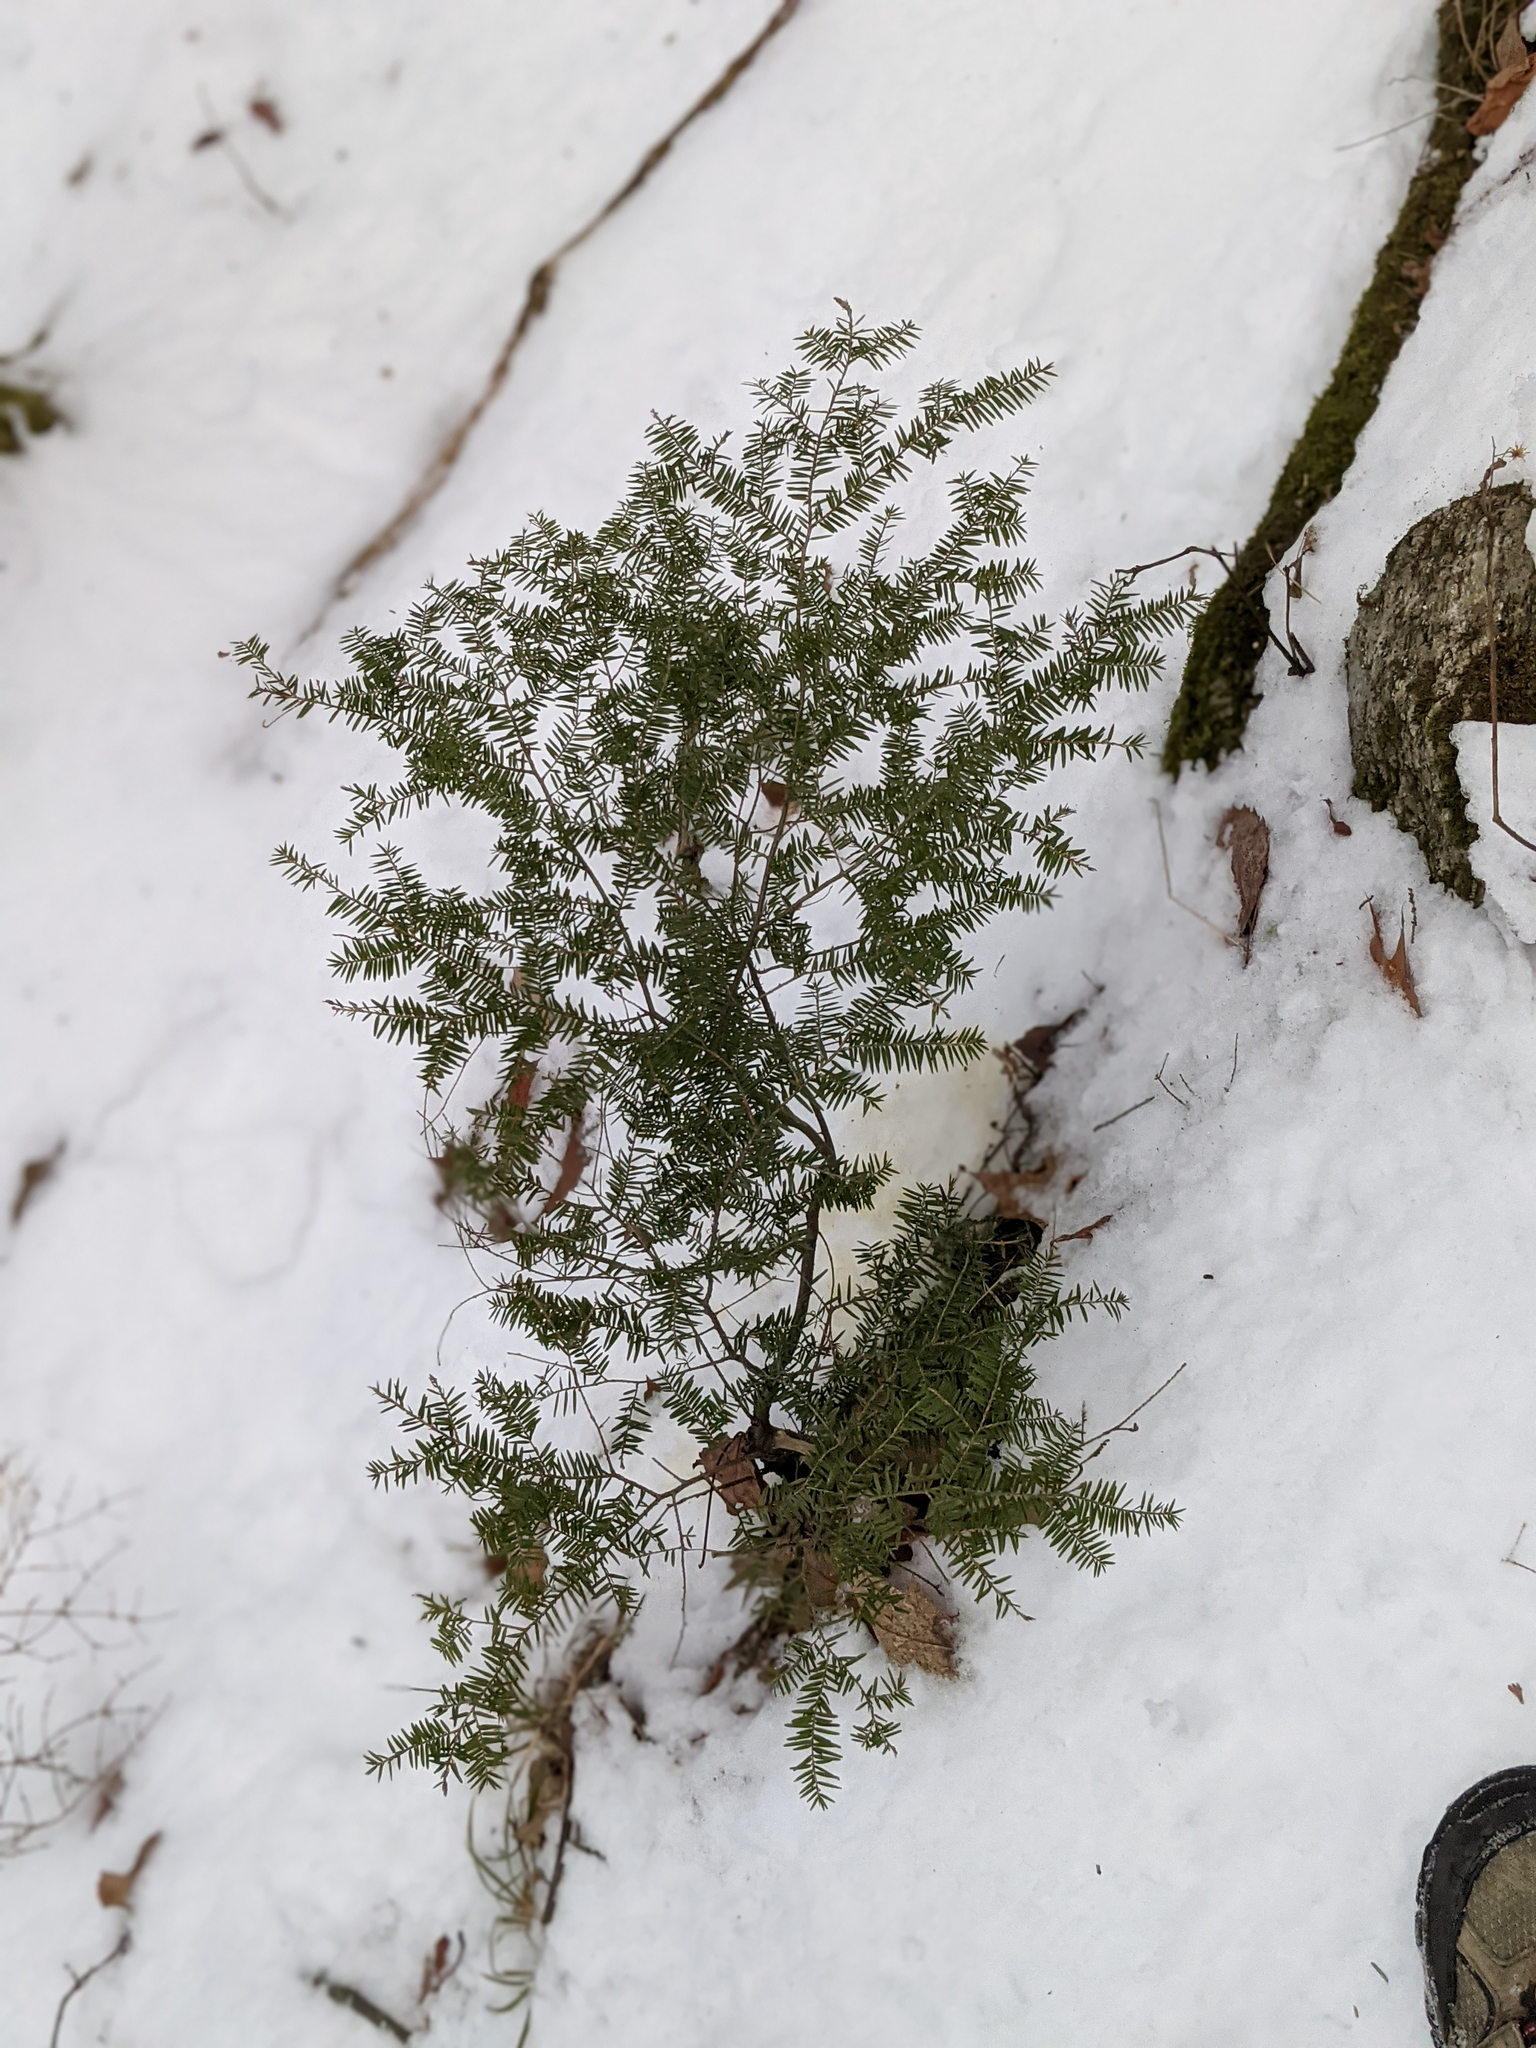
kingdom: Plantae
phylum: Tracheophyta
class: Pinopsida
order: Pinales
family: Pinaceae
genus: Tsuga
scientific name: Tsuga canadensis
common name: Eastern hemlock
